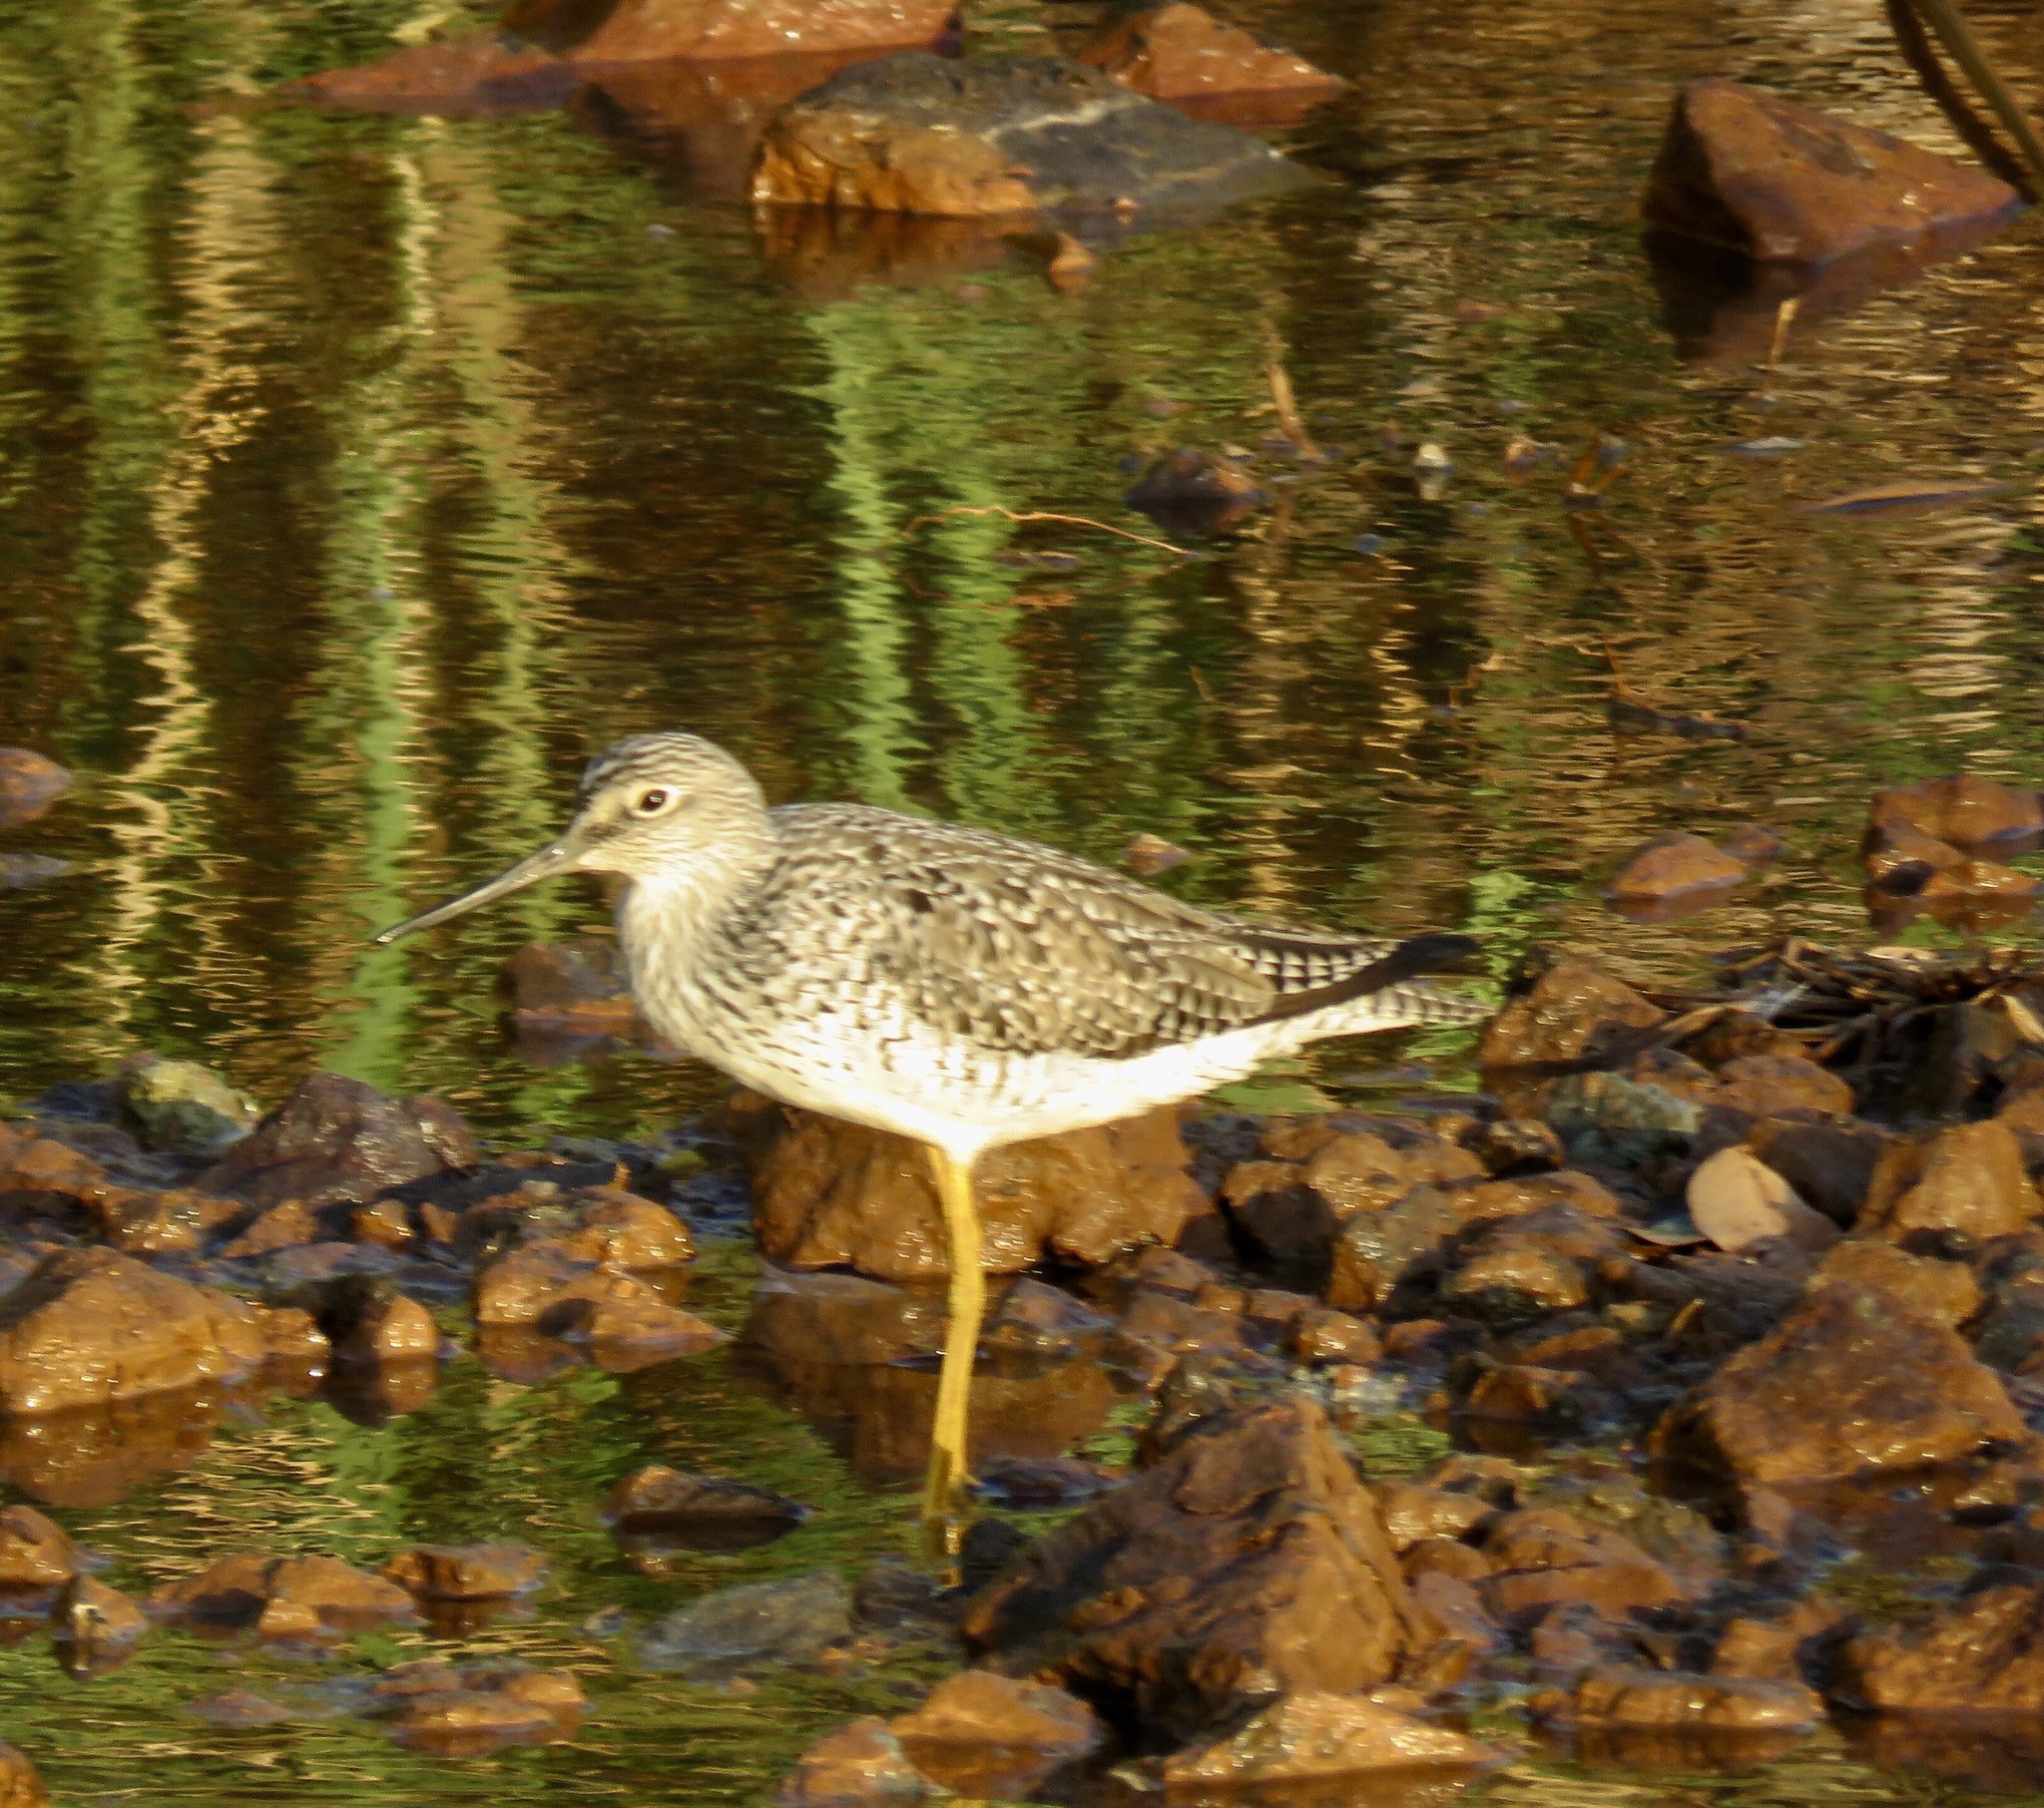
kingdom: Animalia
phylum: Chordata
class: Aves
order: Charadriiformes
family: Scolopacidae
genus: Tringa
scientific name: Tringa melanoleuca
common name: Greater yellowlegs
